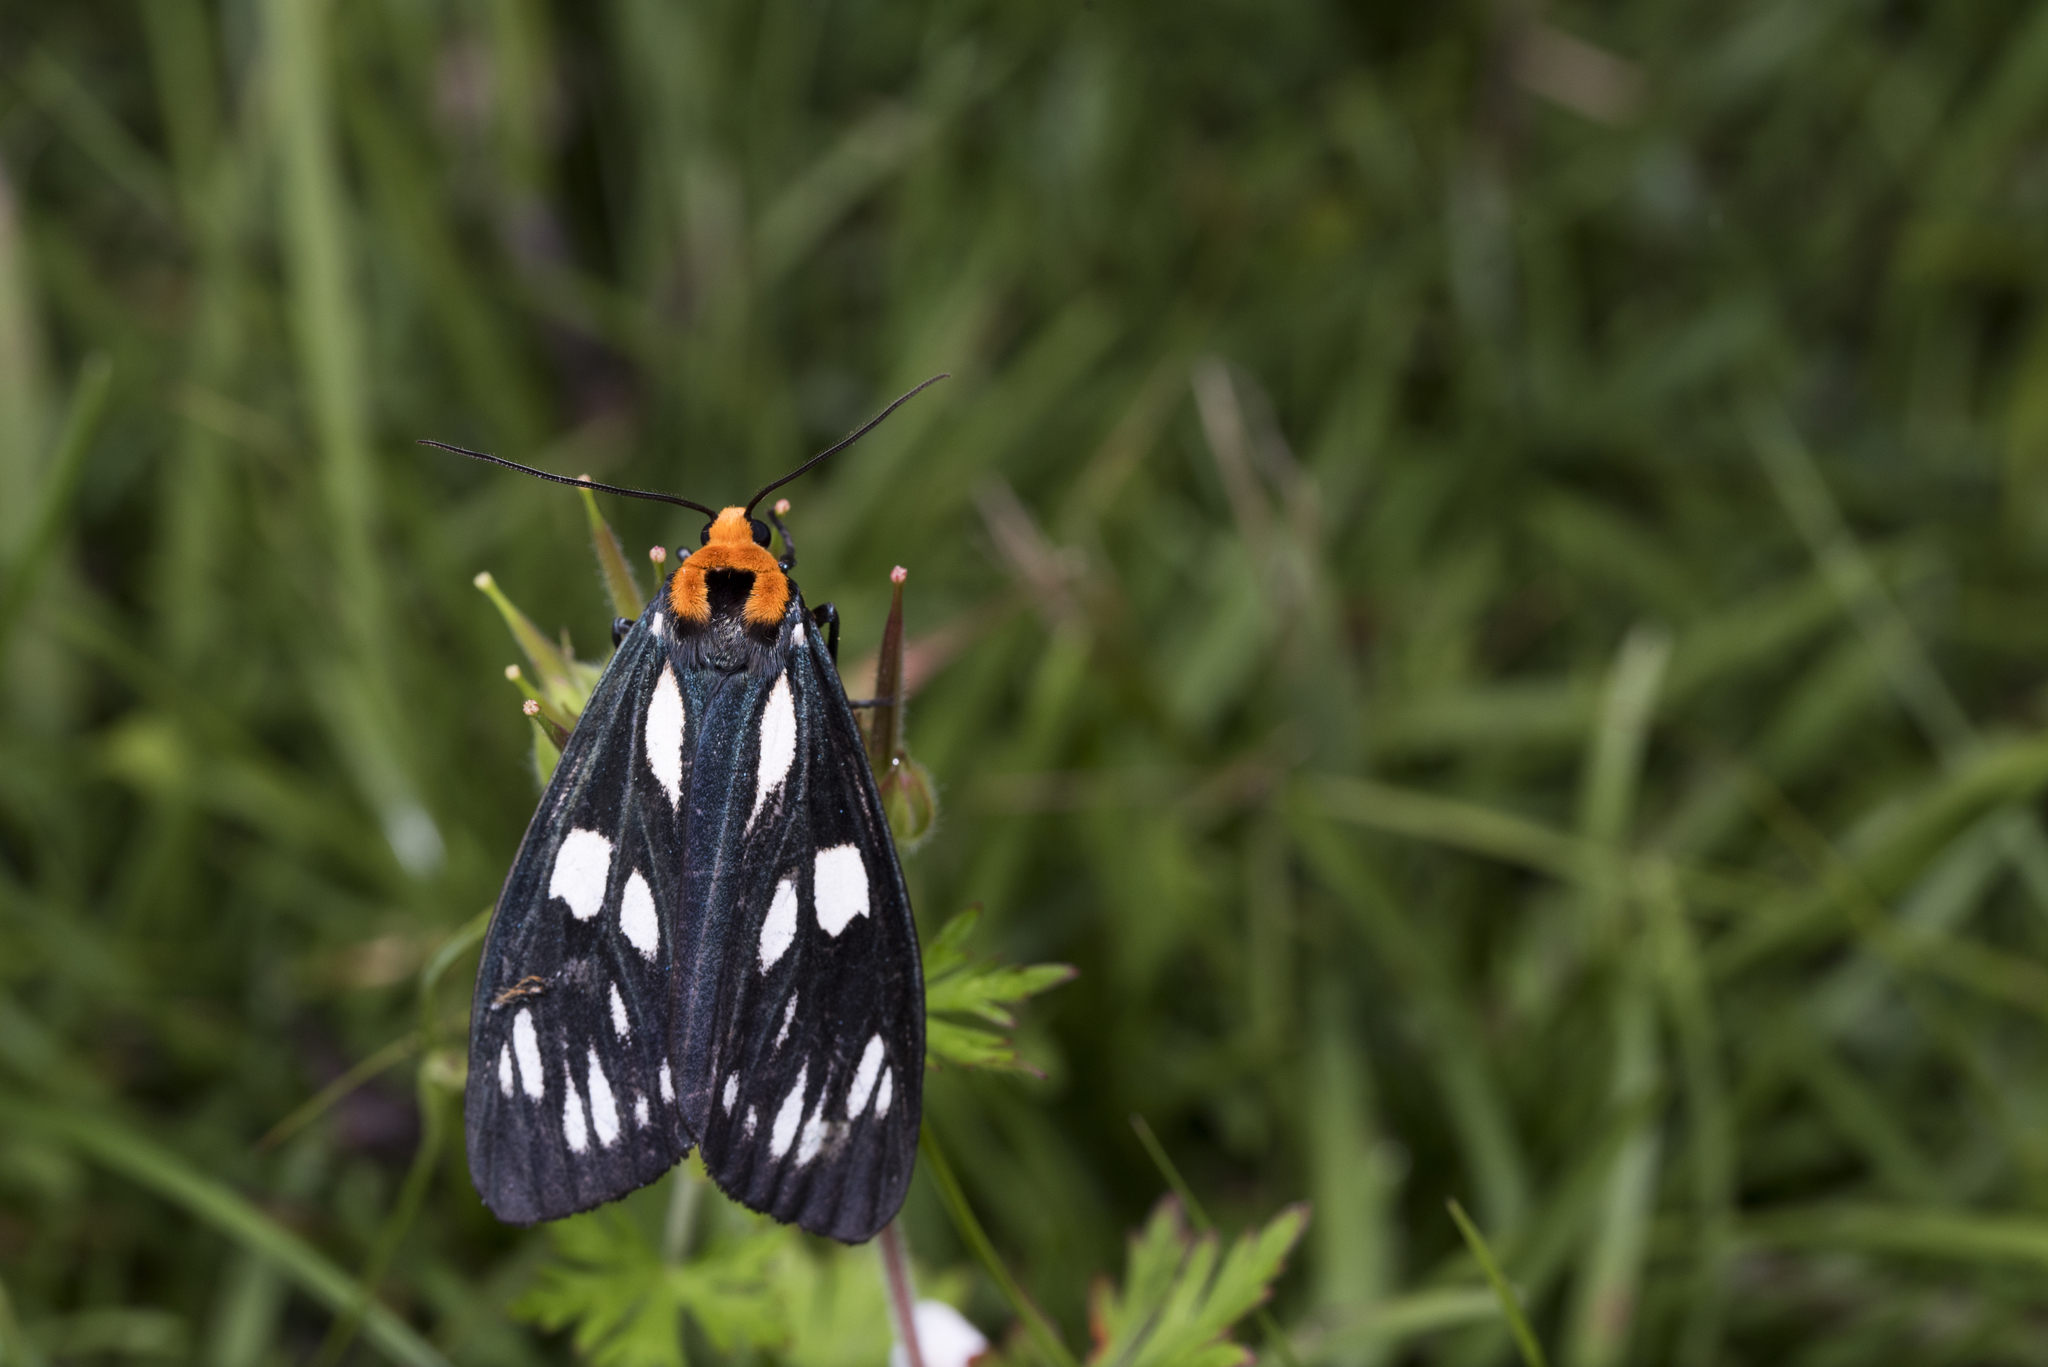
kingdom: Animalia
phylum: Arthropoda
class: Insecta
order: Lepidoptera
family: Erebidae
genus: Macrobrochis
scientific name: Macrobrochis gigas
